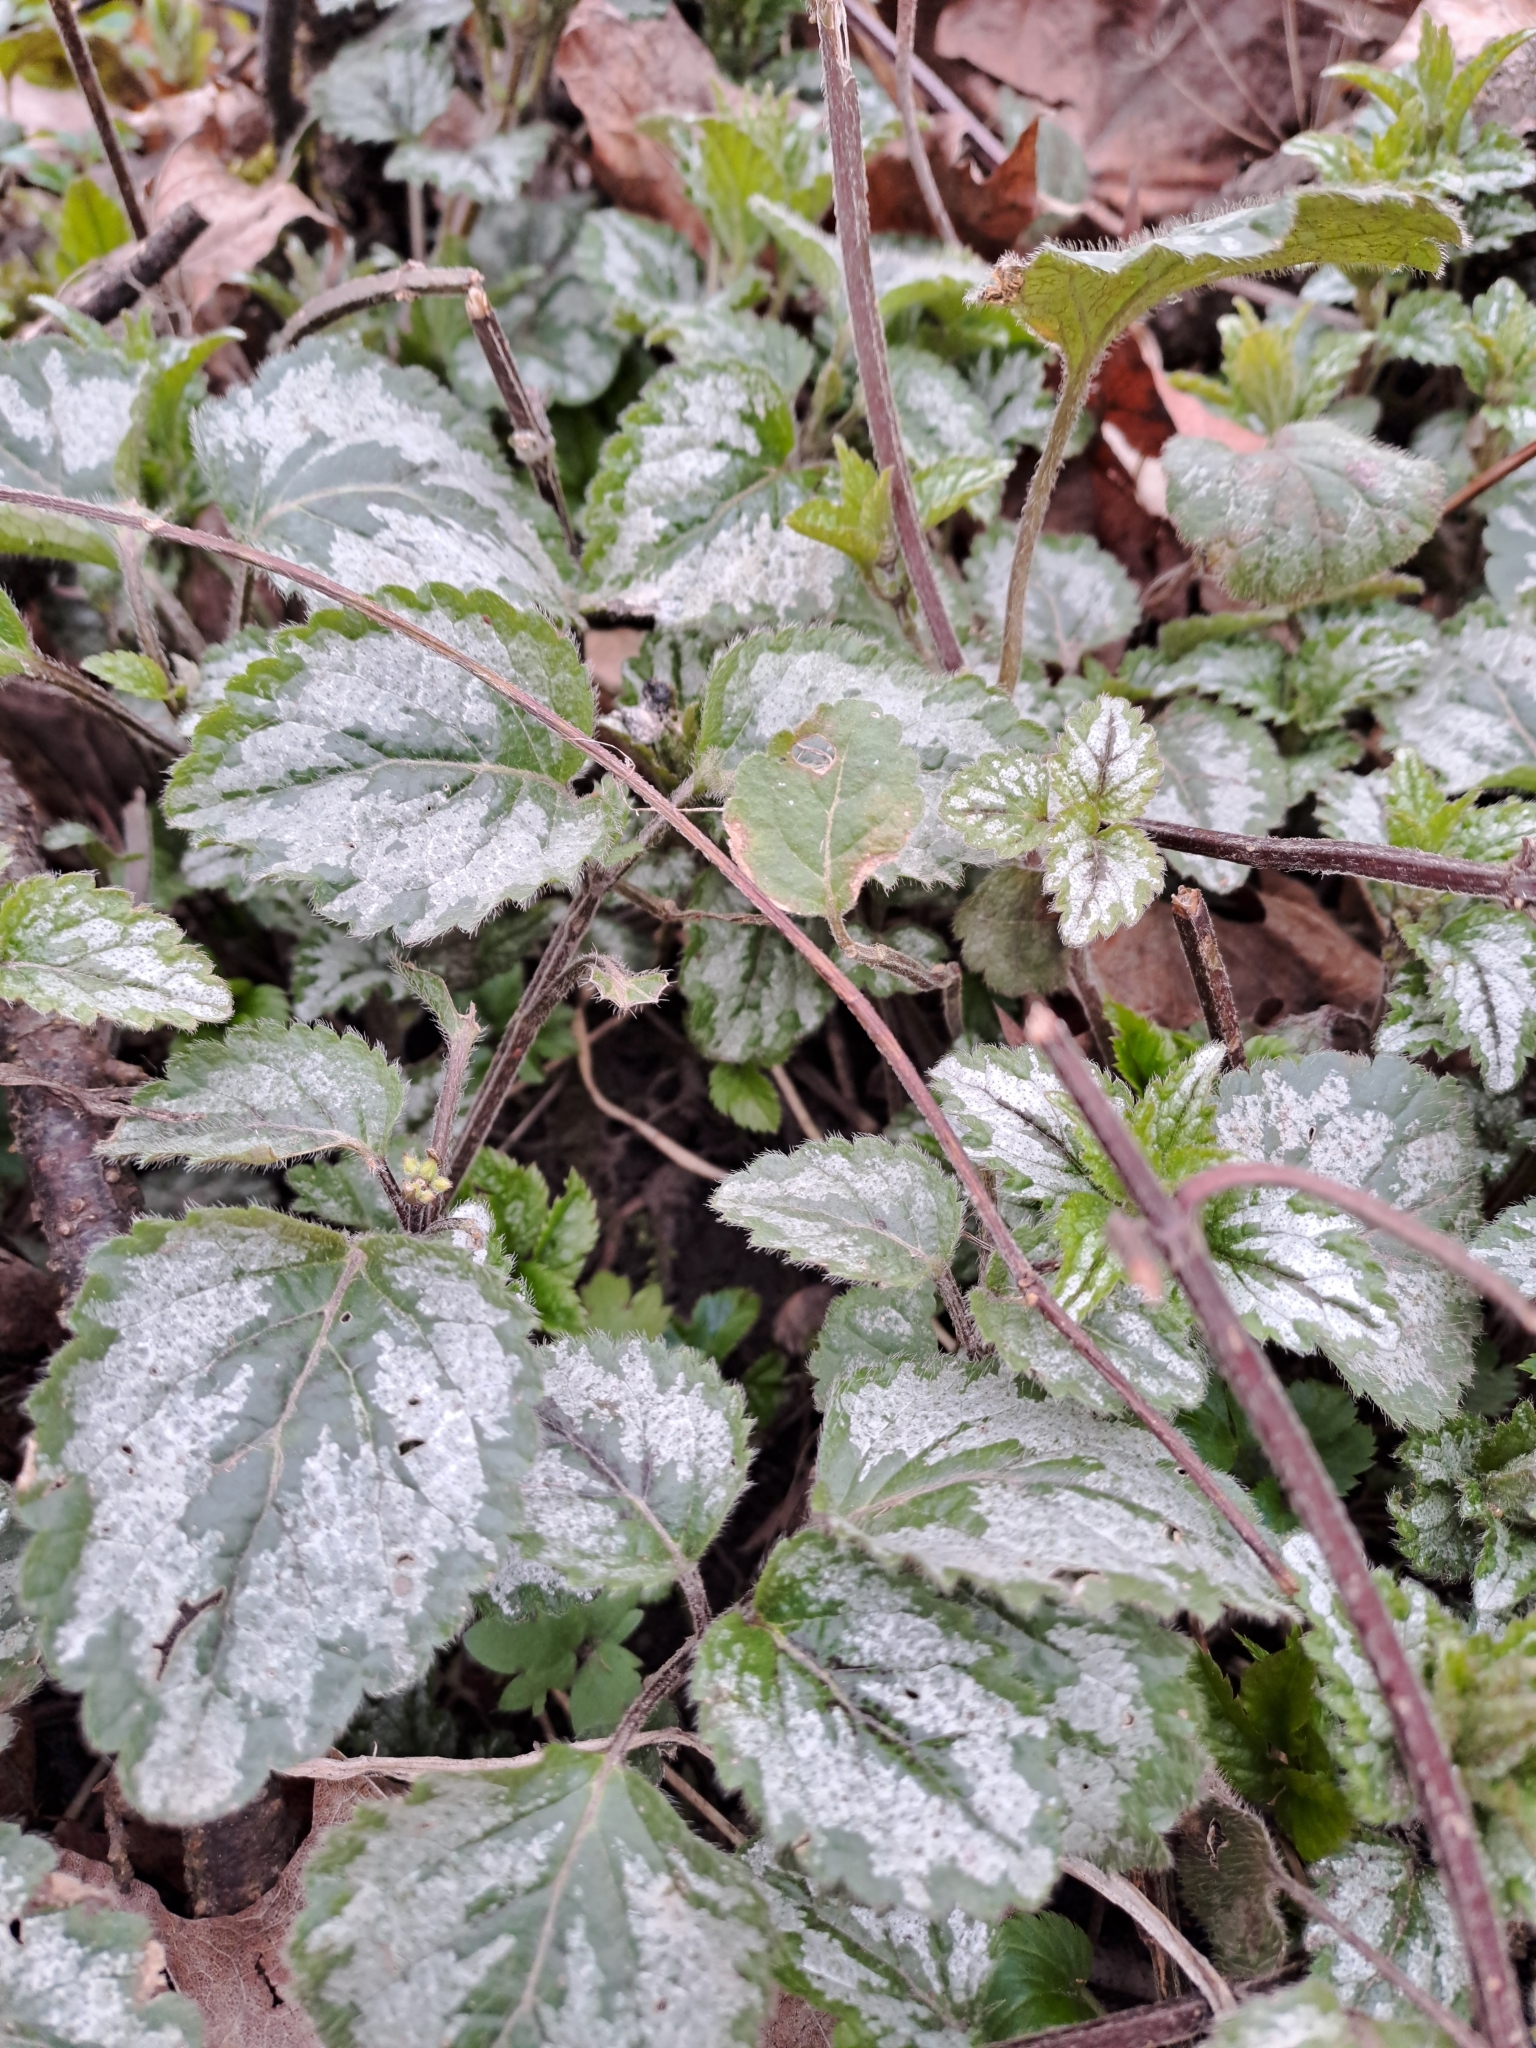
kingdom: Plantae
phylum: Tracheophyta
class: Magnoliopsida
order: Lamiales
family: Lamiaceae
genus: Lamium
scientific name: Lamium galeobdolon
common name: Yellow archangel
